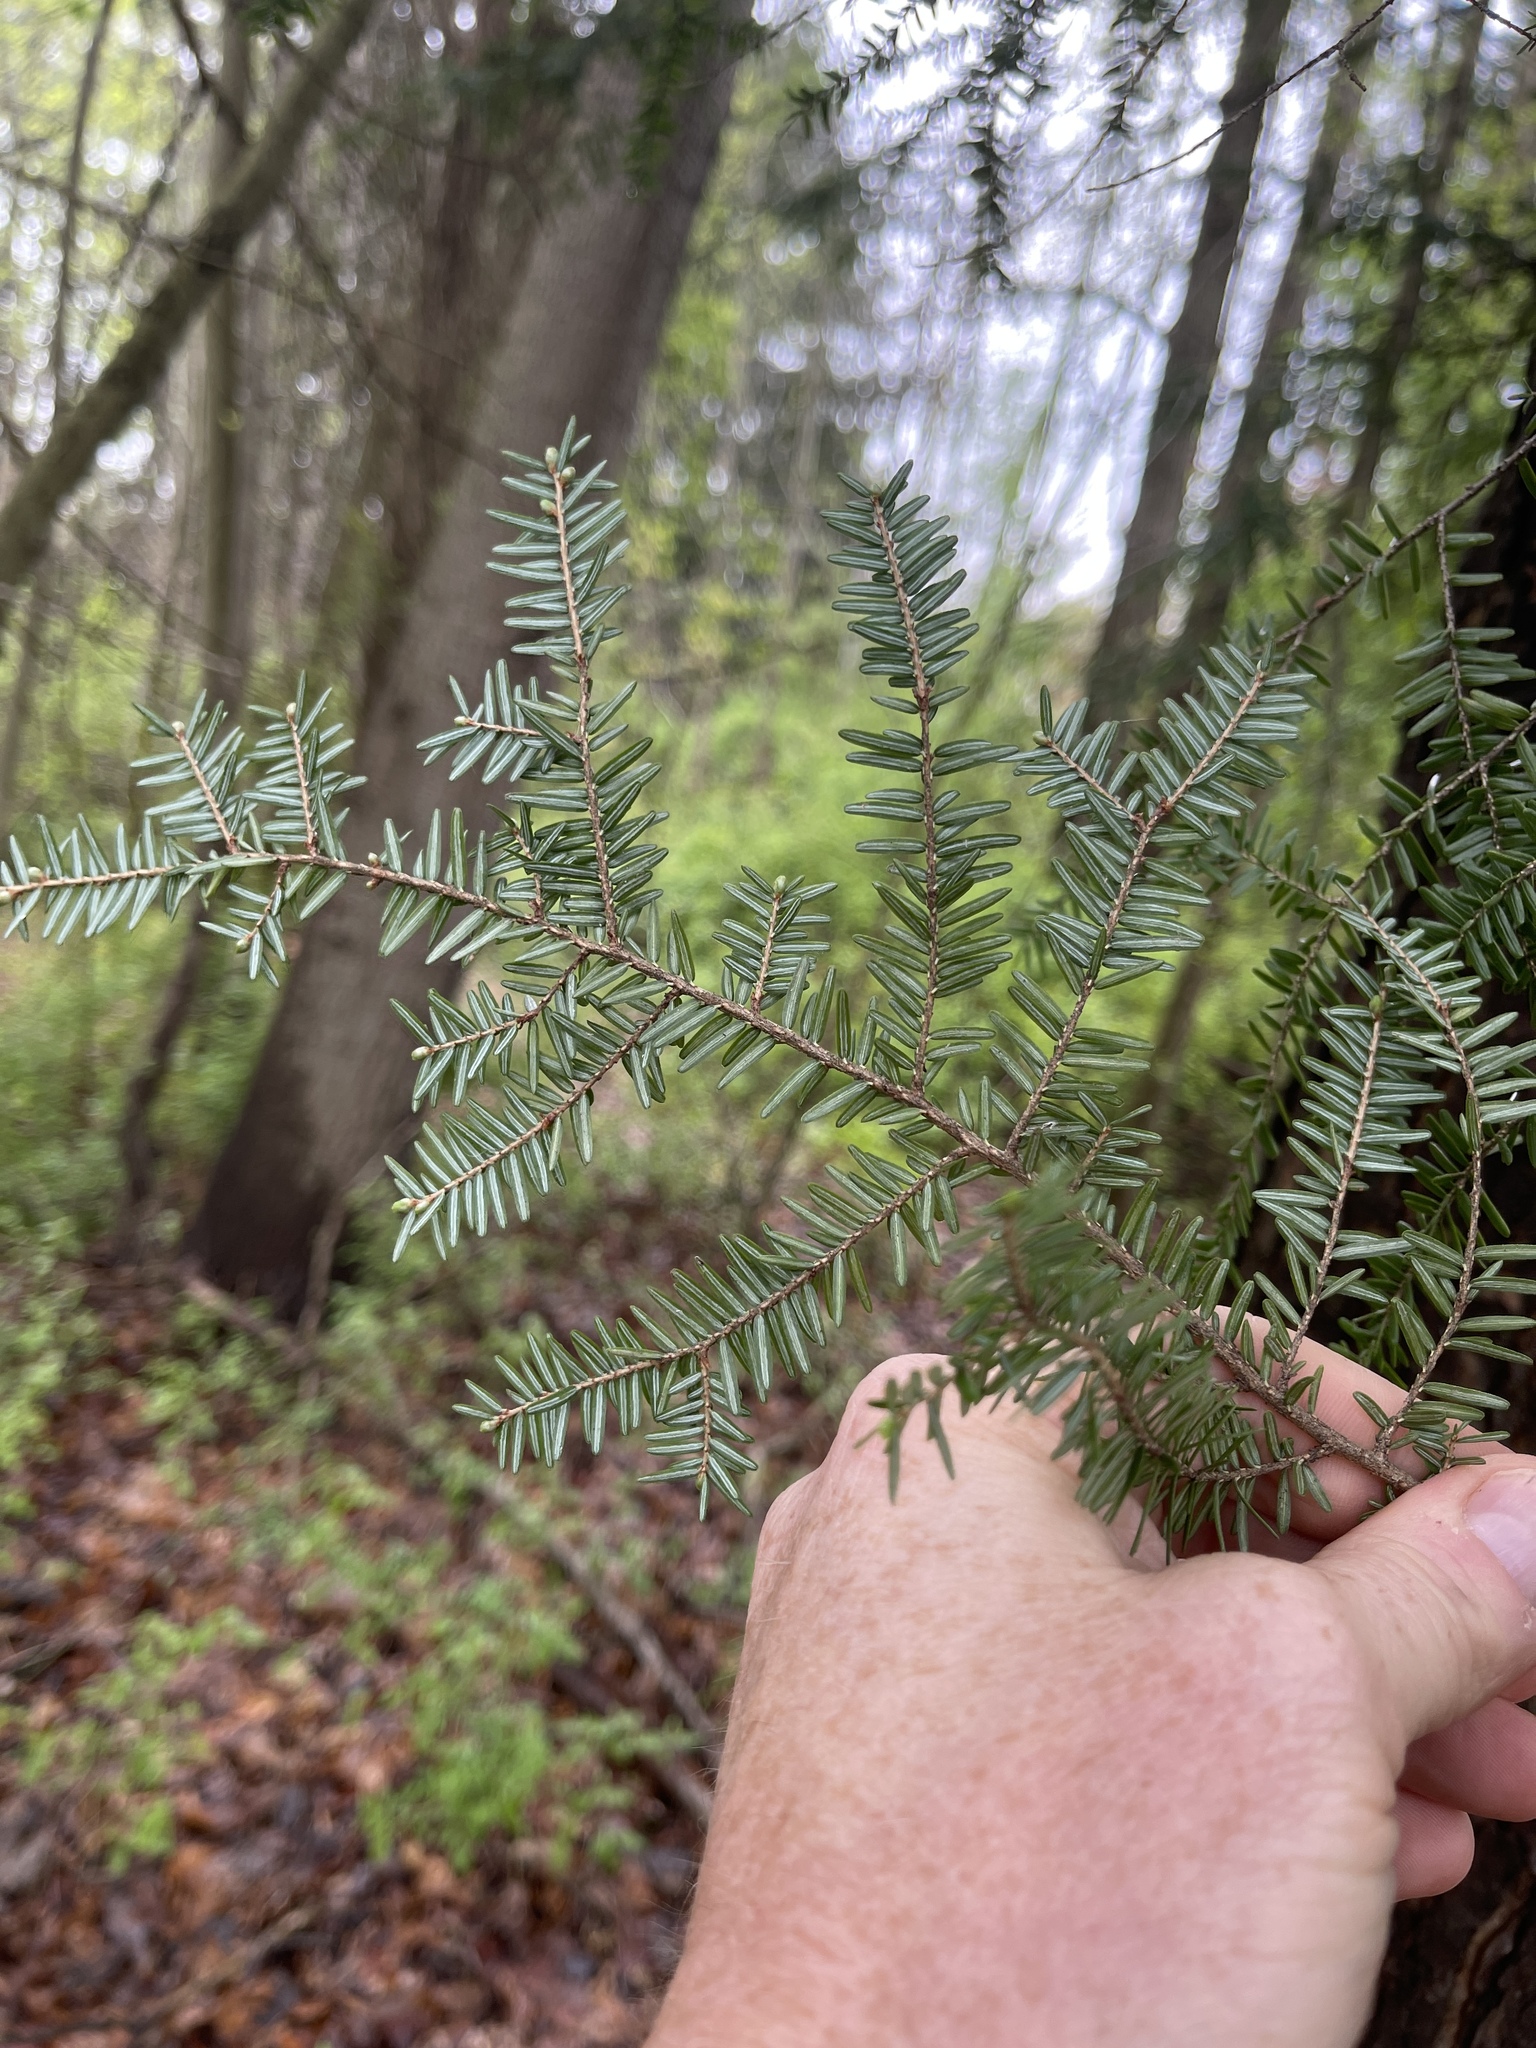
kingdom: Plantae
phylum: Tracheophyta
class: Pinopsida
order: Pinales
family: Pinaceae
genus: Tsuga
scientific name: Tsuga canadensis
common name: Eastern hemlock
